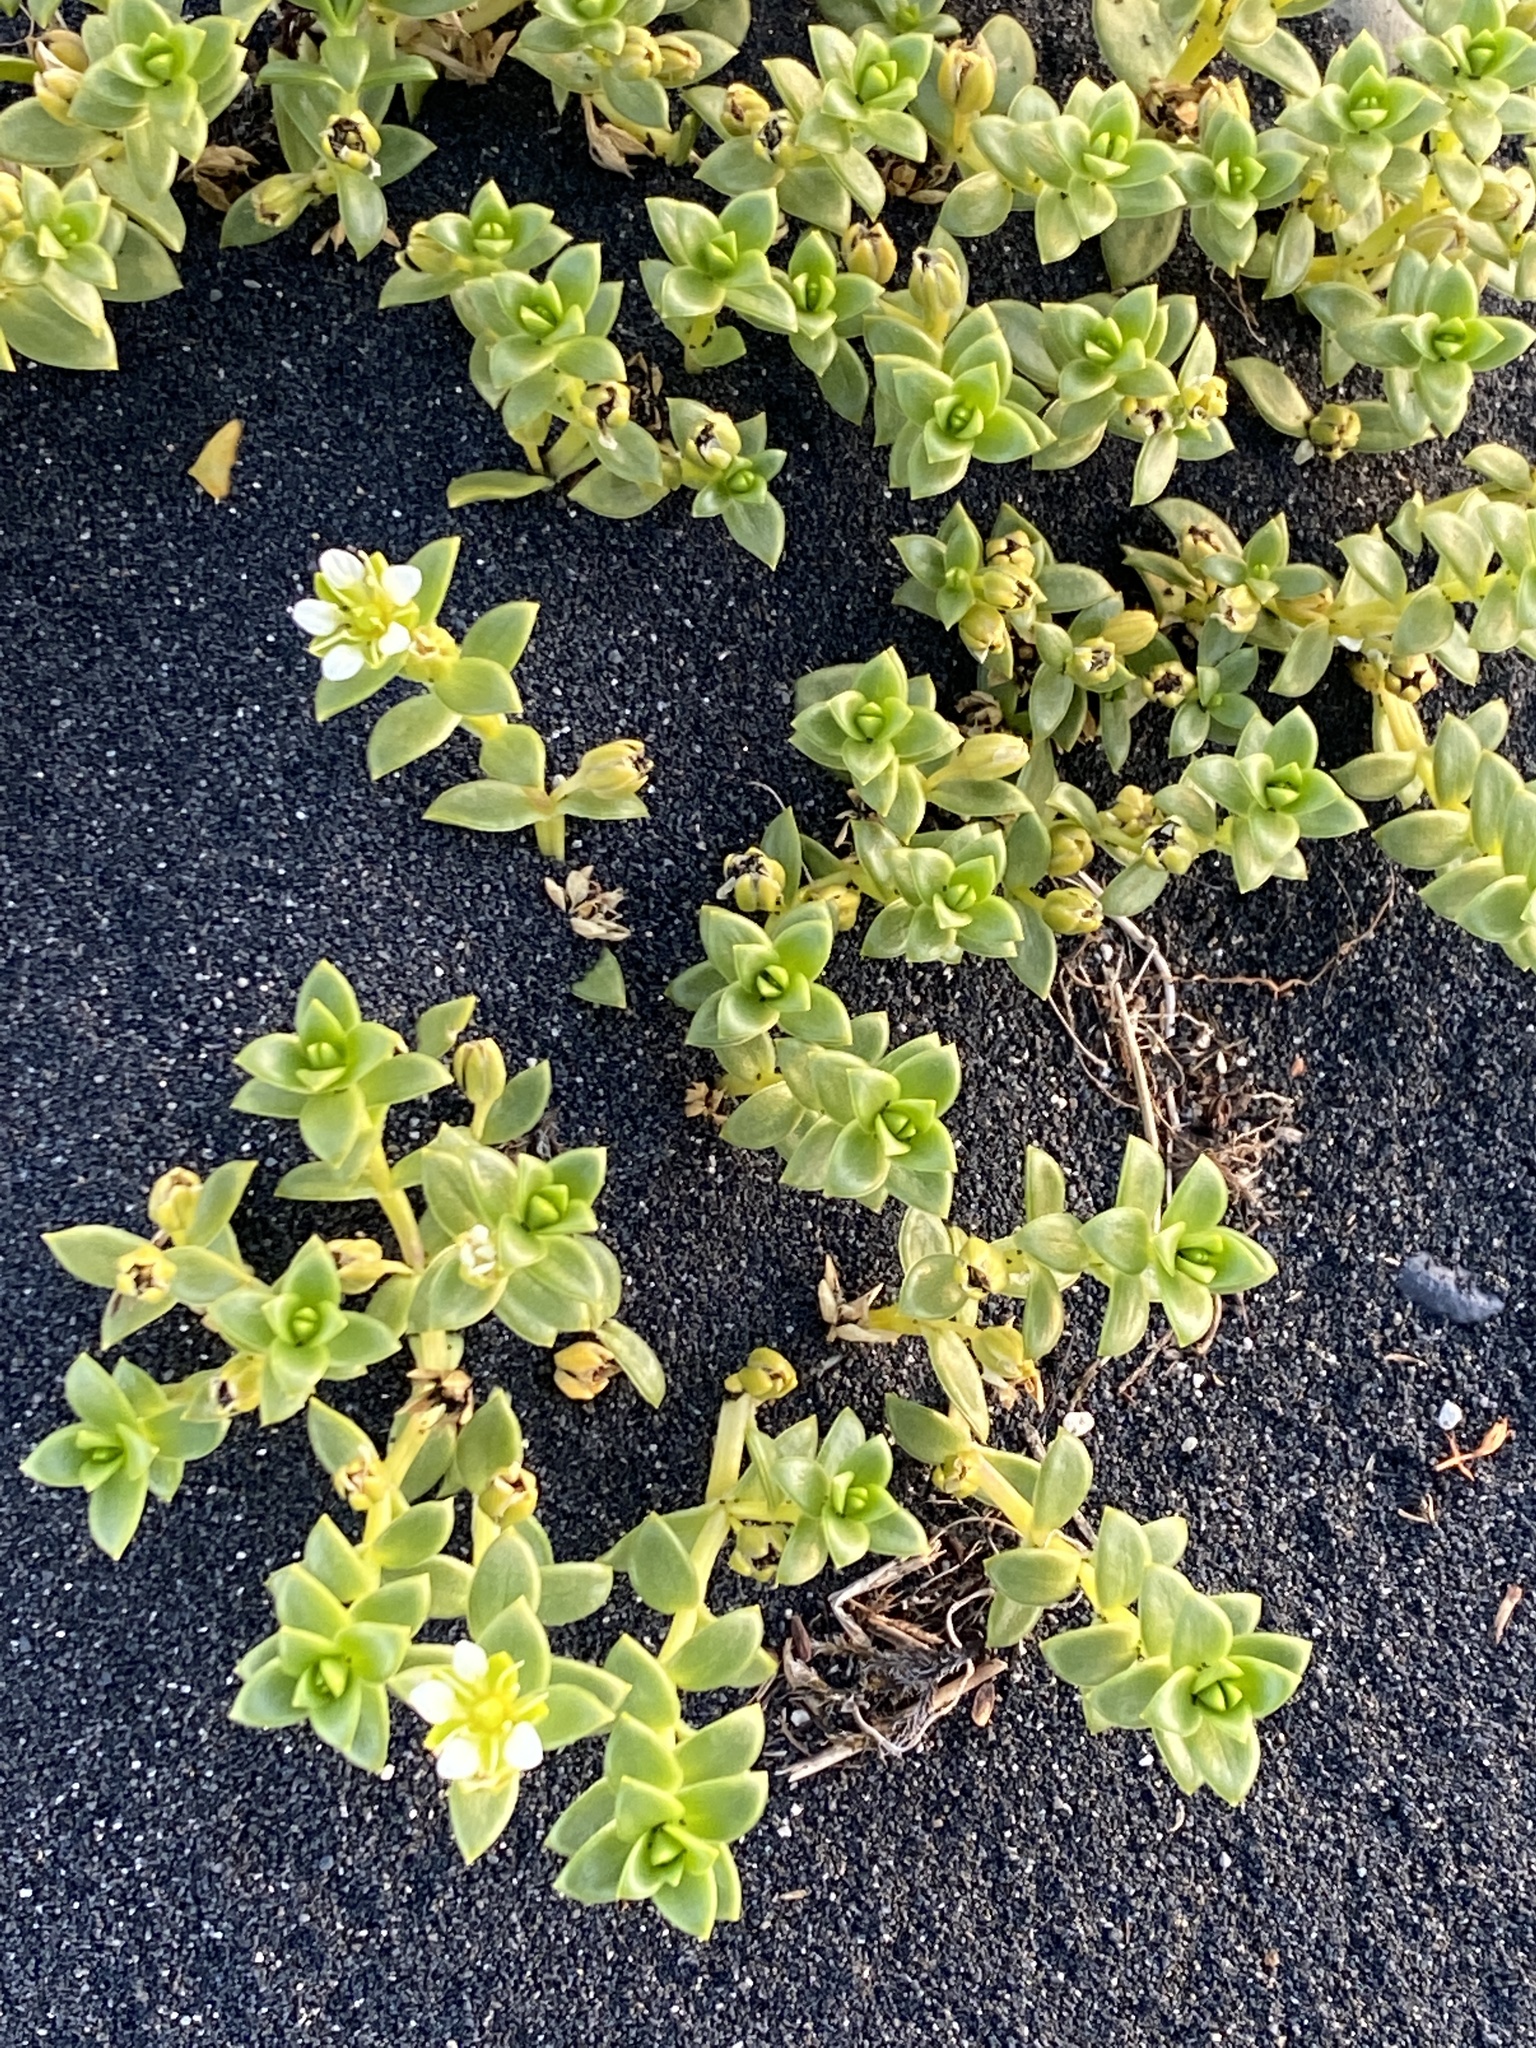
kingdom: Plantae
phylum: Tracheophyta
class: Magnoliopsida
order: Caryophyllales
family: Caryophyllaceae
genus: Honckenya
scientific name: Honckenya peploides
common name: Sea sandwort
